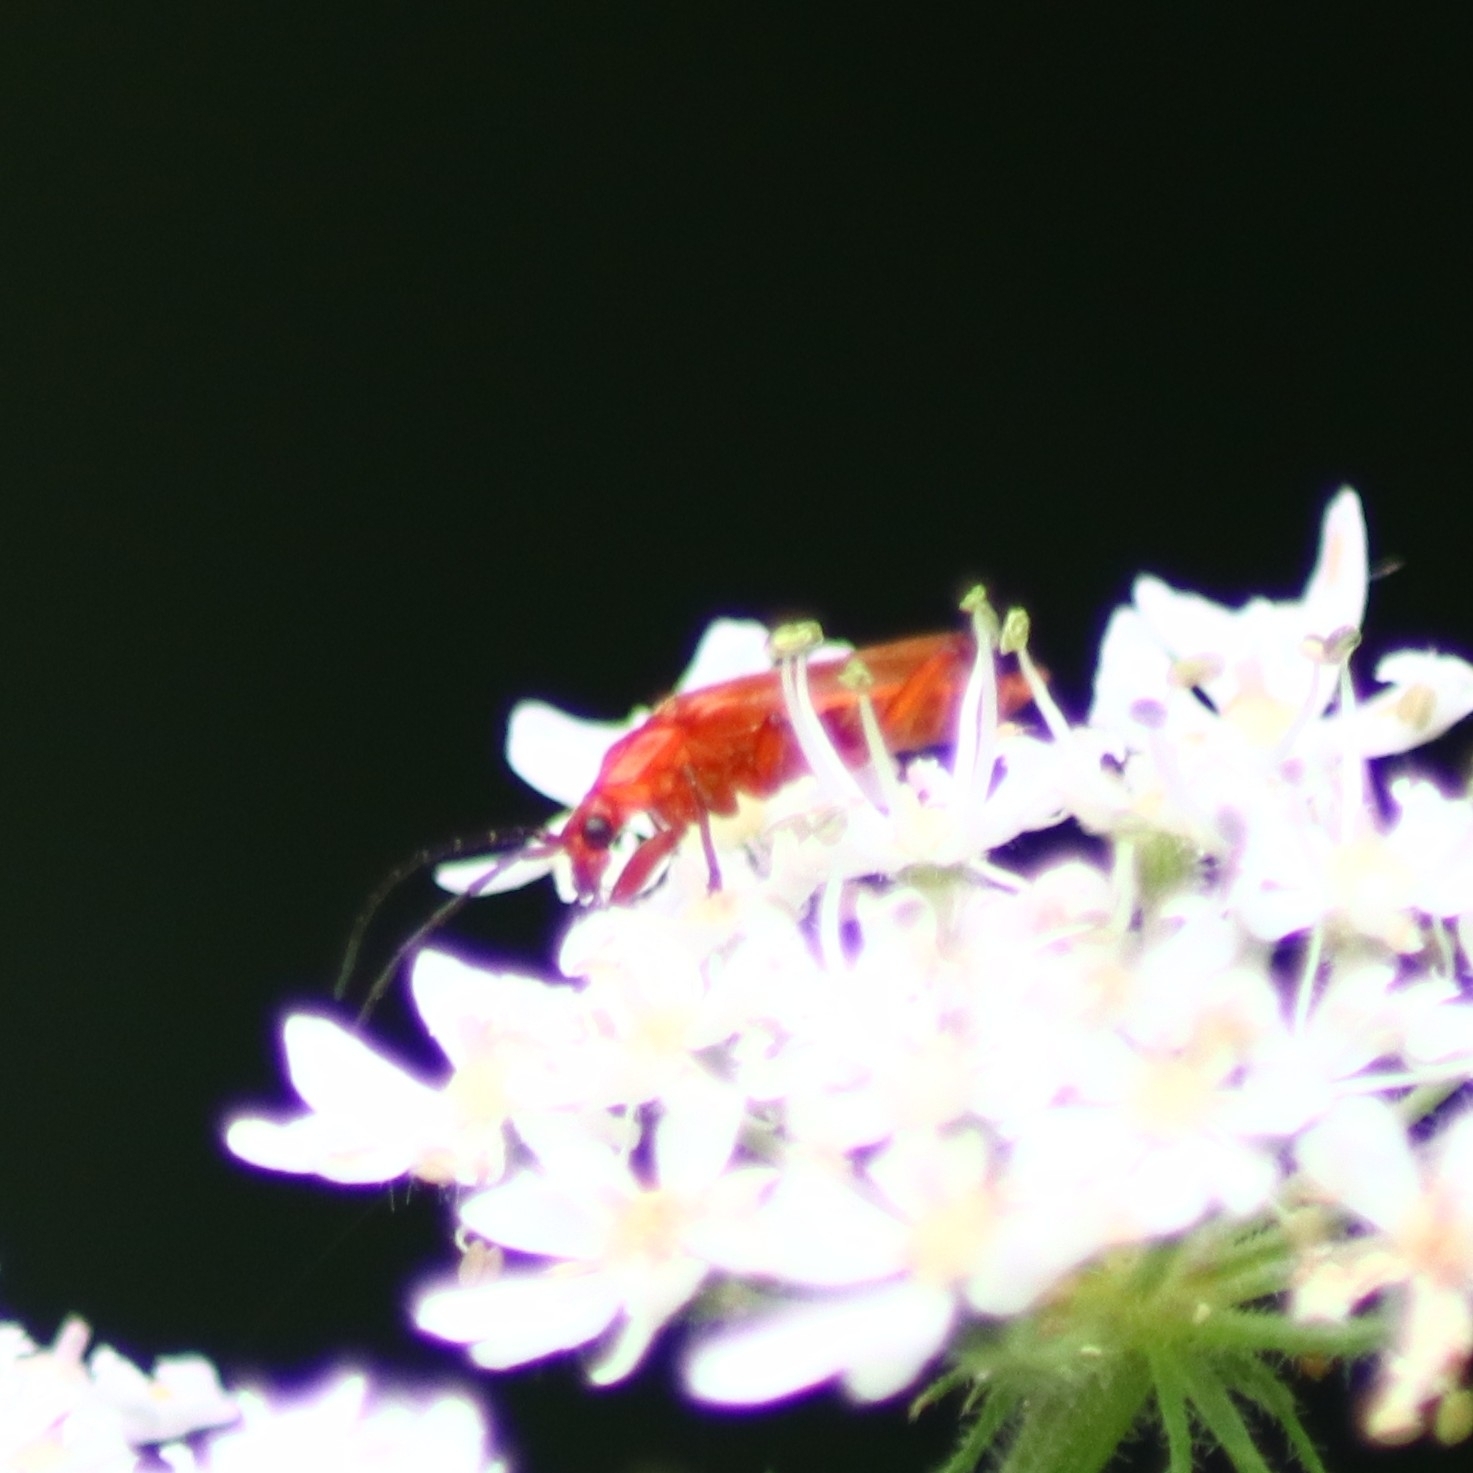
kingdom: Animalia
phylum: Arthropoda
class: Insecta
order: Coleoptera
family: Cantharidae
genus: Rhagonycha
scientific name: Rhagonycha fulva
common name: Common red soldier beetle
